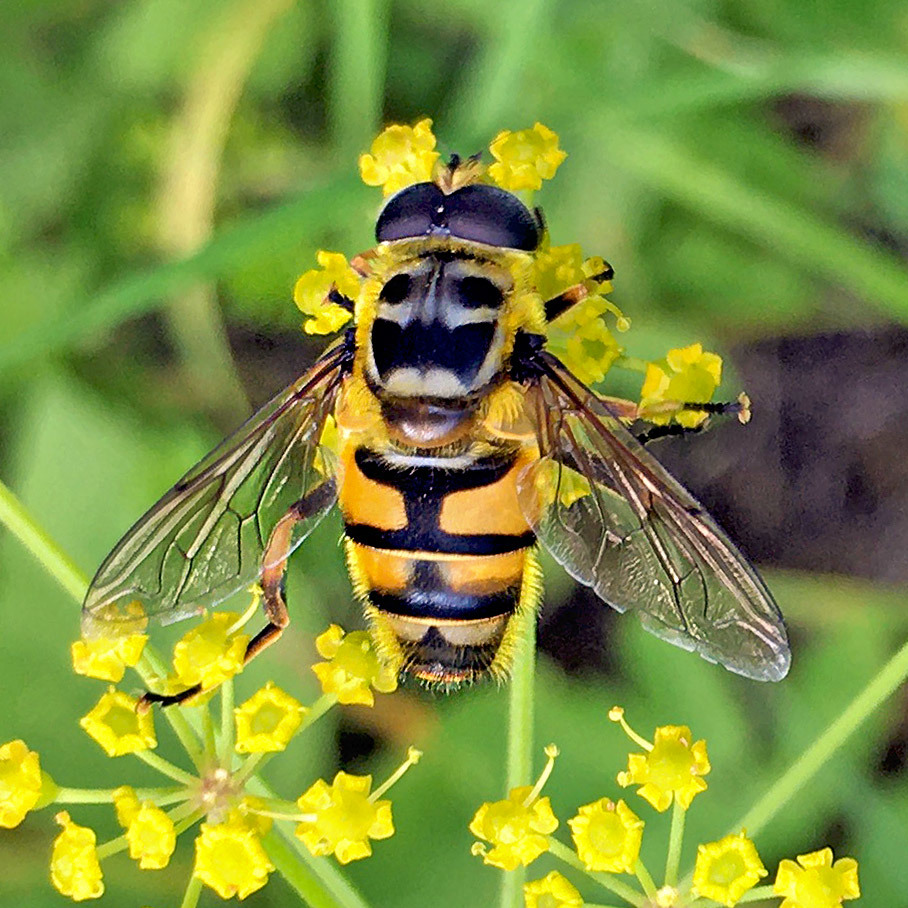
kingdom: Animalia
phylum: Arthropoda
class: Insecta
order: Diptera
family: Syrphidae
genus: Myathropa
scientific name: Myathropa florea
